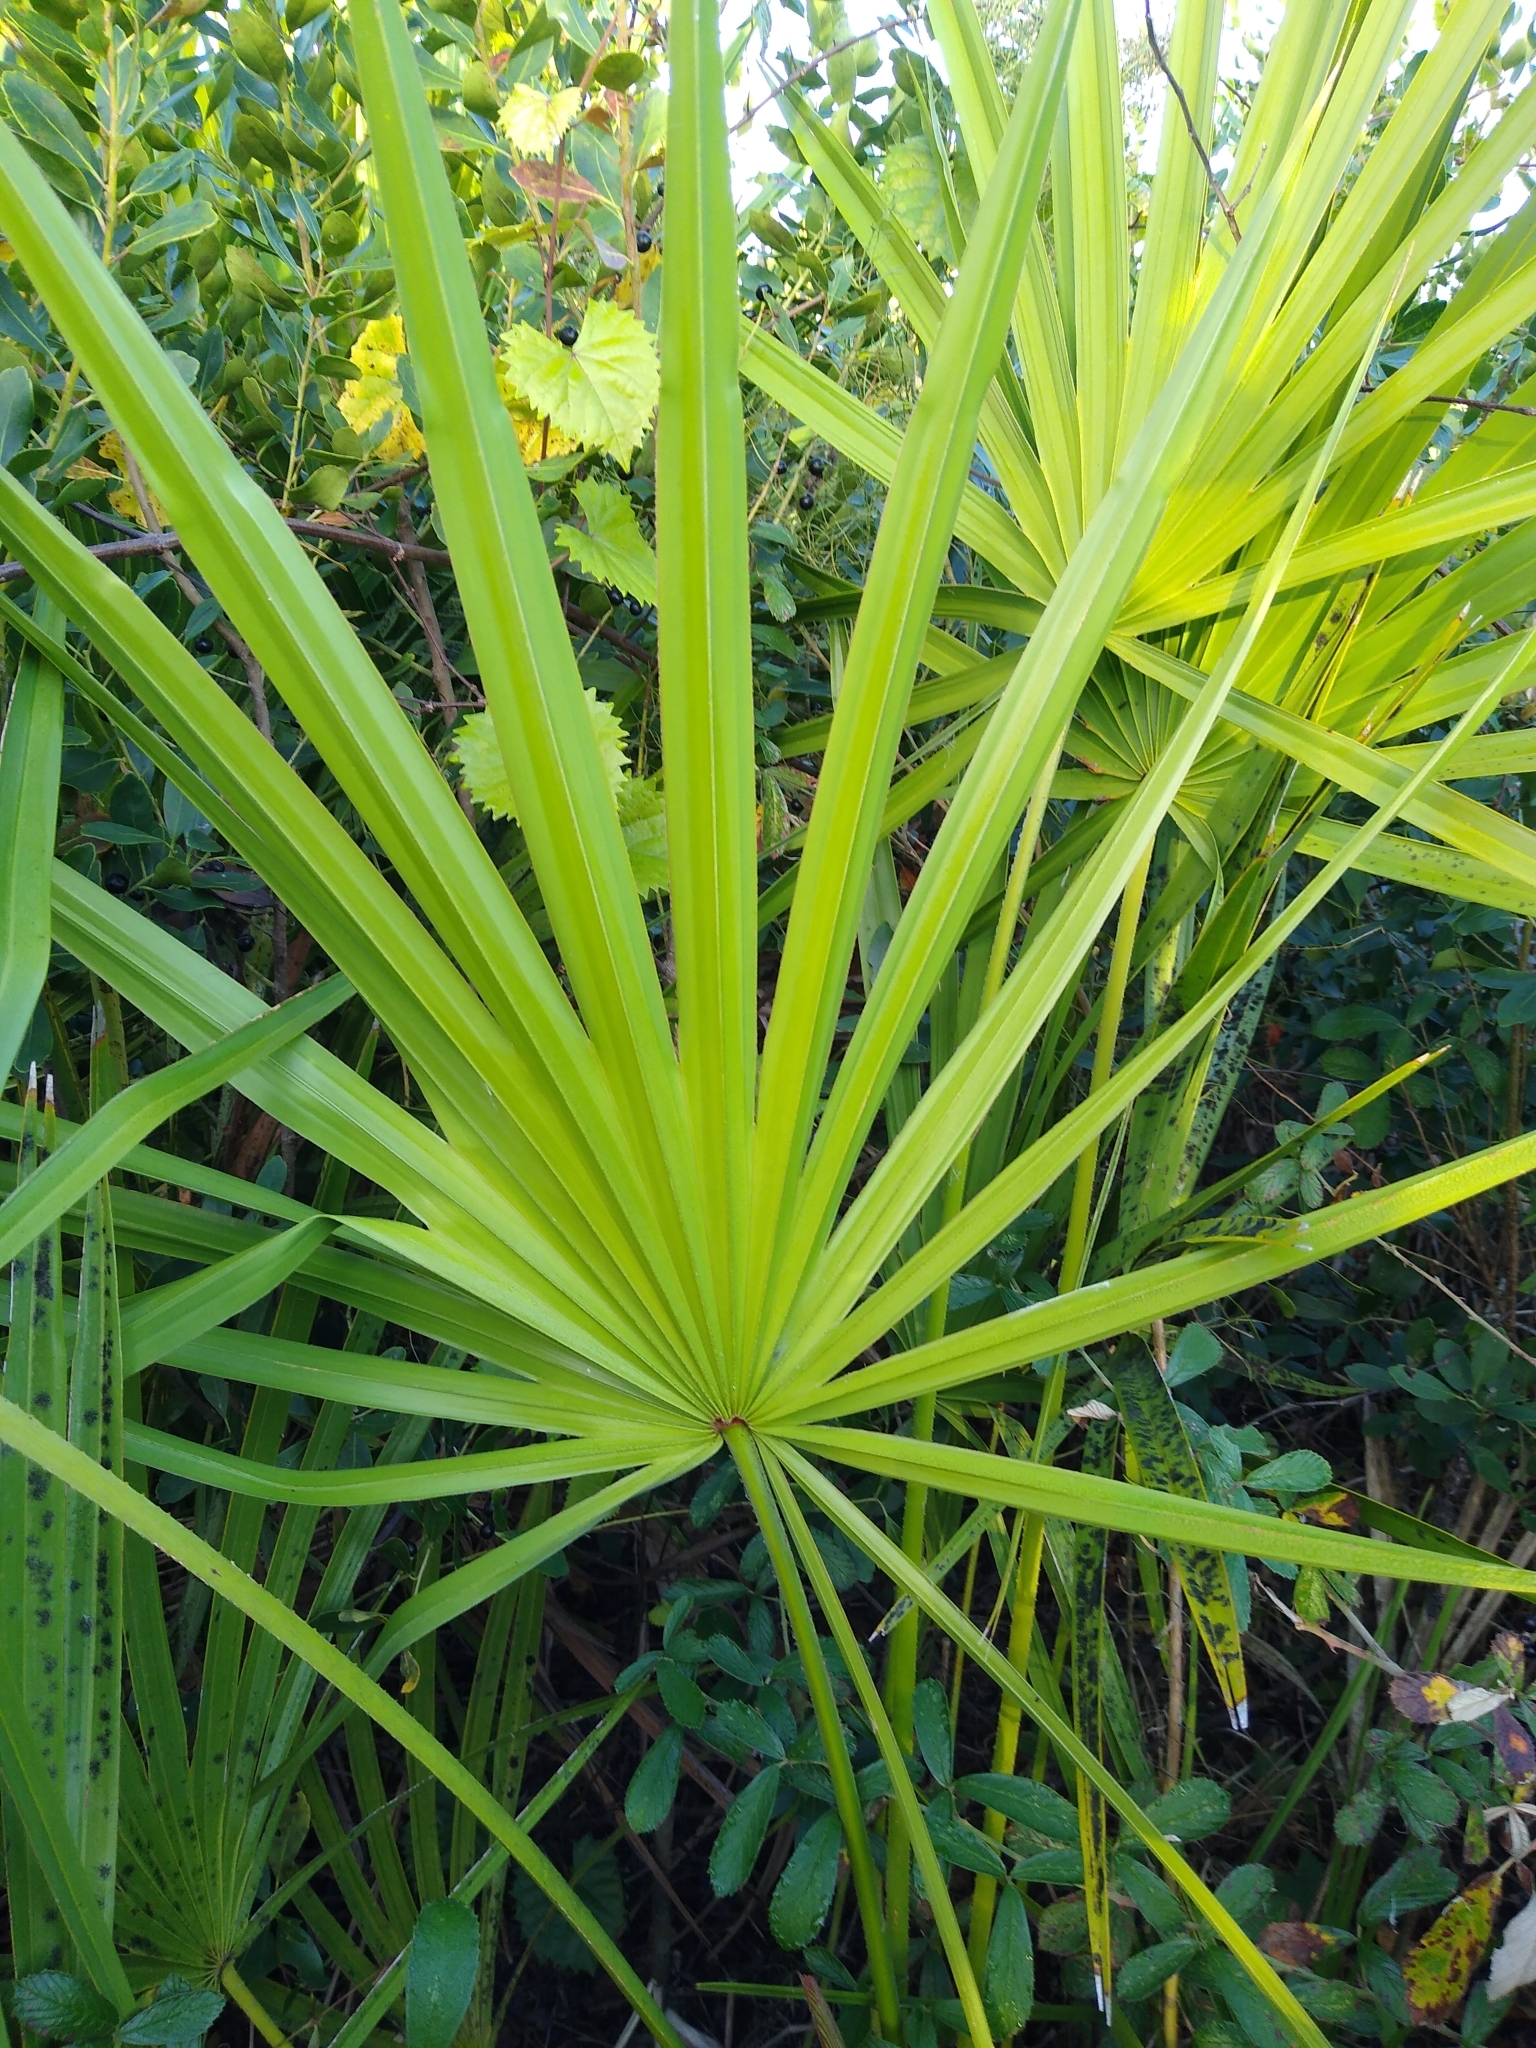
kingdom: Plantae
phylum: Tracheophyta
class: Liliopsida
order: Arecales
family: Arecaceae
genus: Serenoa
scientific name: Serenoa repens
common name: Saw-palmetto
